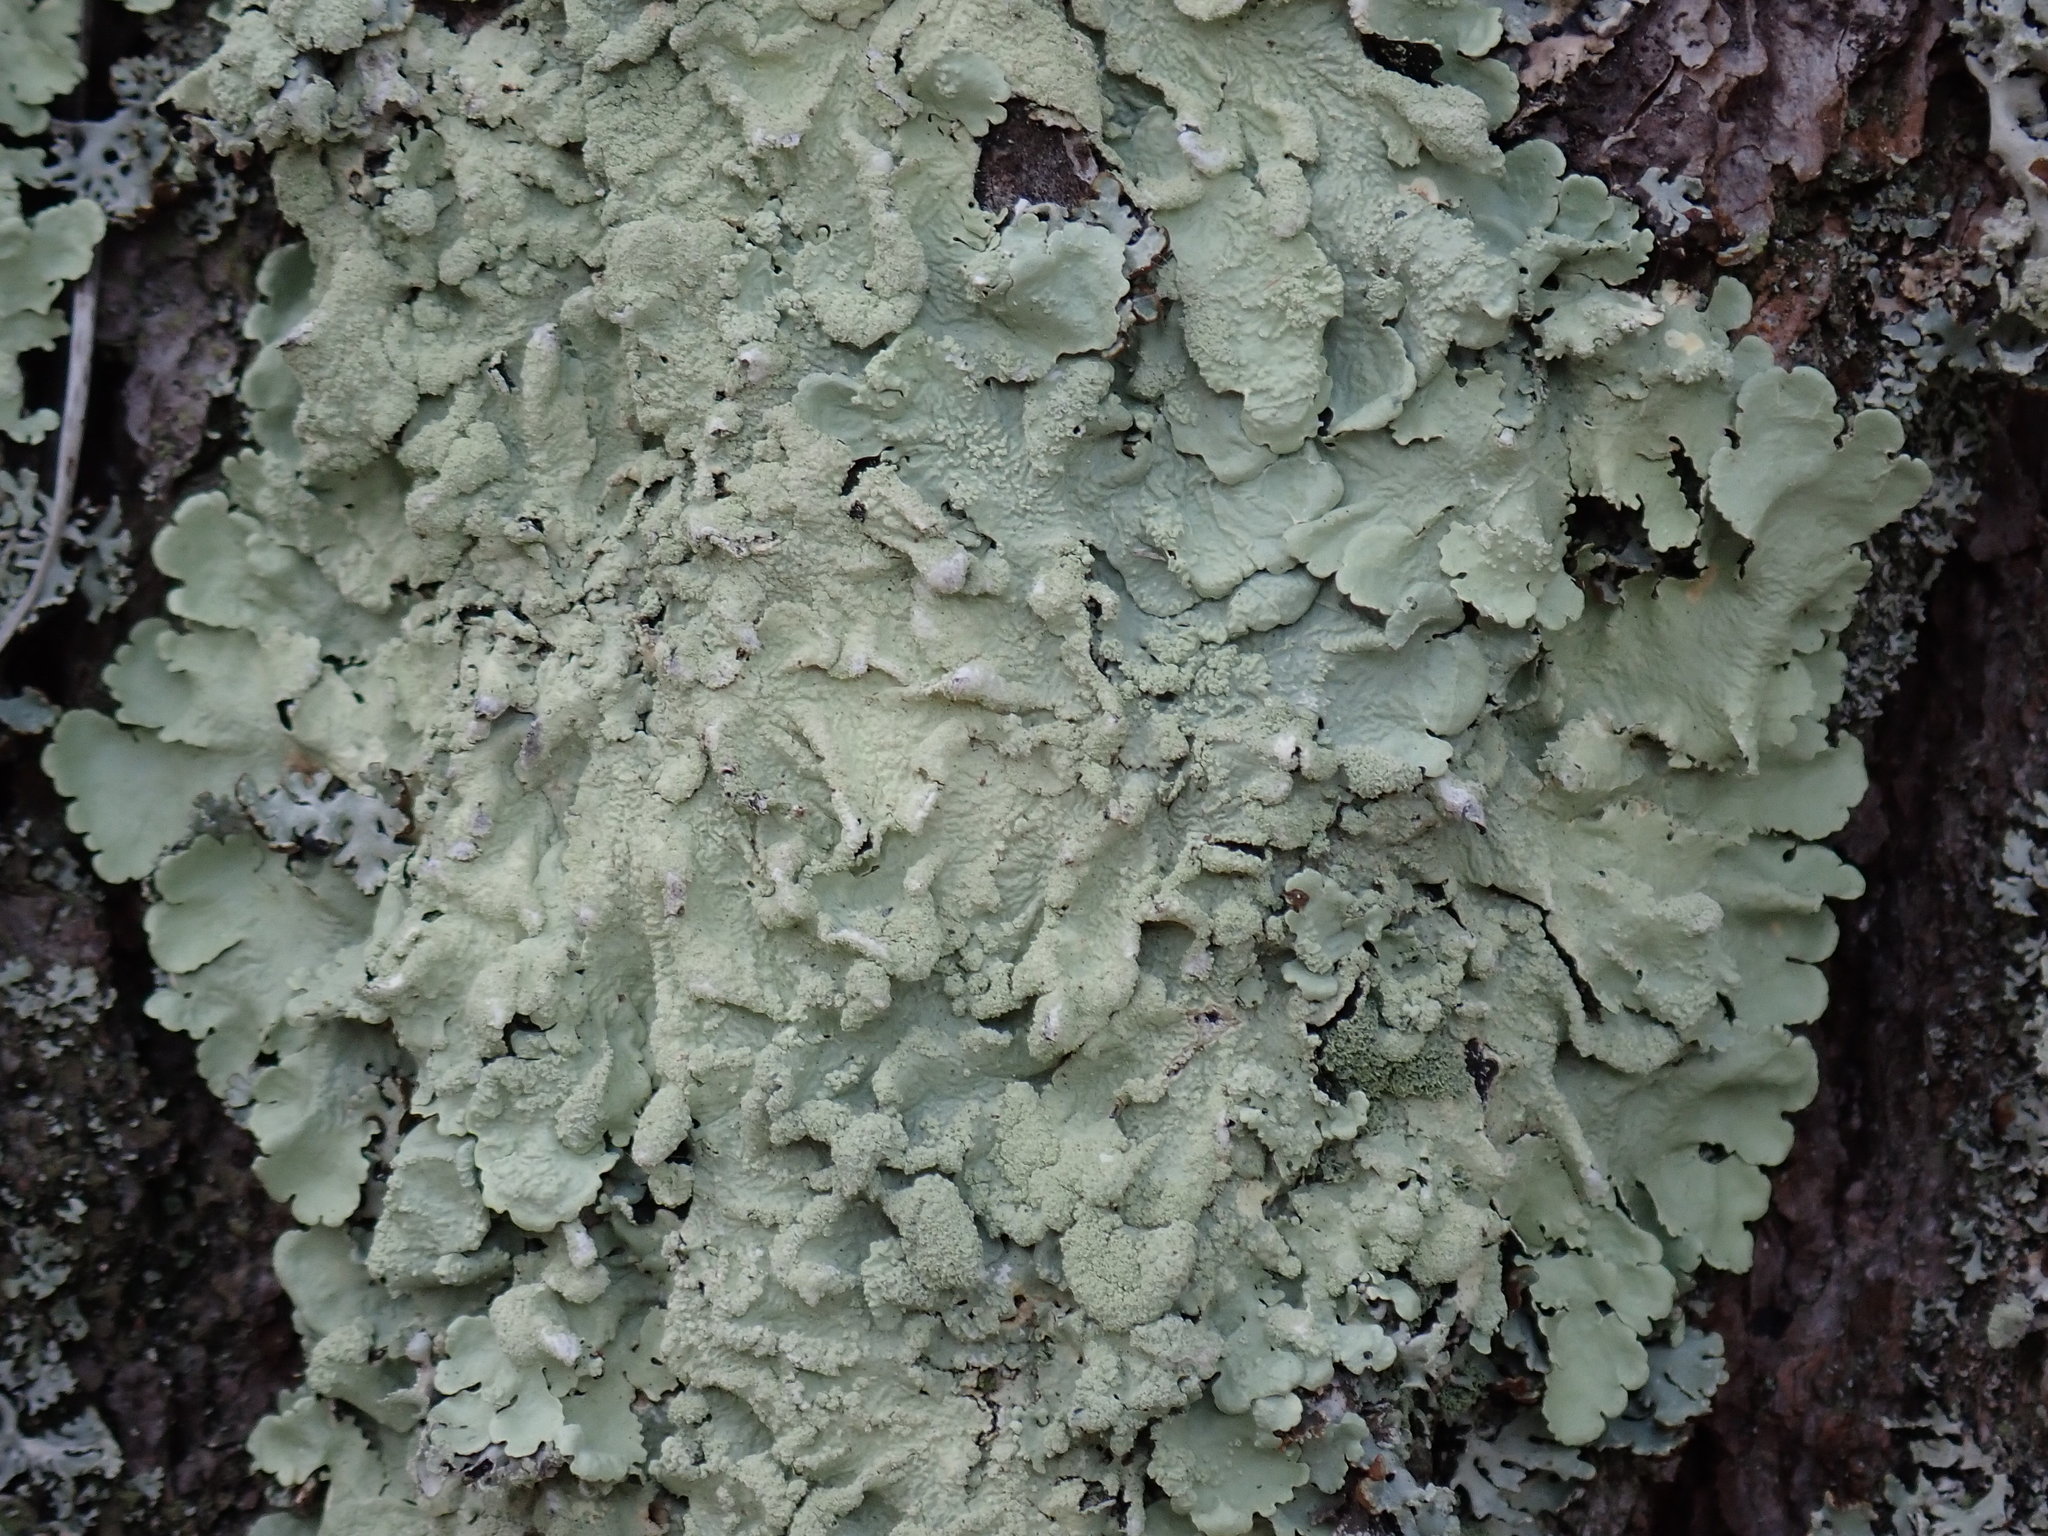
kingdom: Fungi
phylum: Ascomycota
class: Lecanoromycetes
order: Lecanorales
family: Parmeliaceae
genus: Flavoparmelia
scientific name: Flavoparmelia caperata
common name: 40-mile per hour lichen
